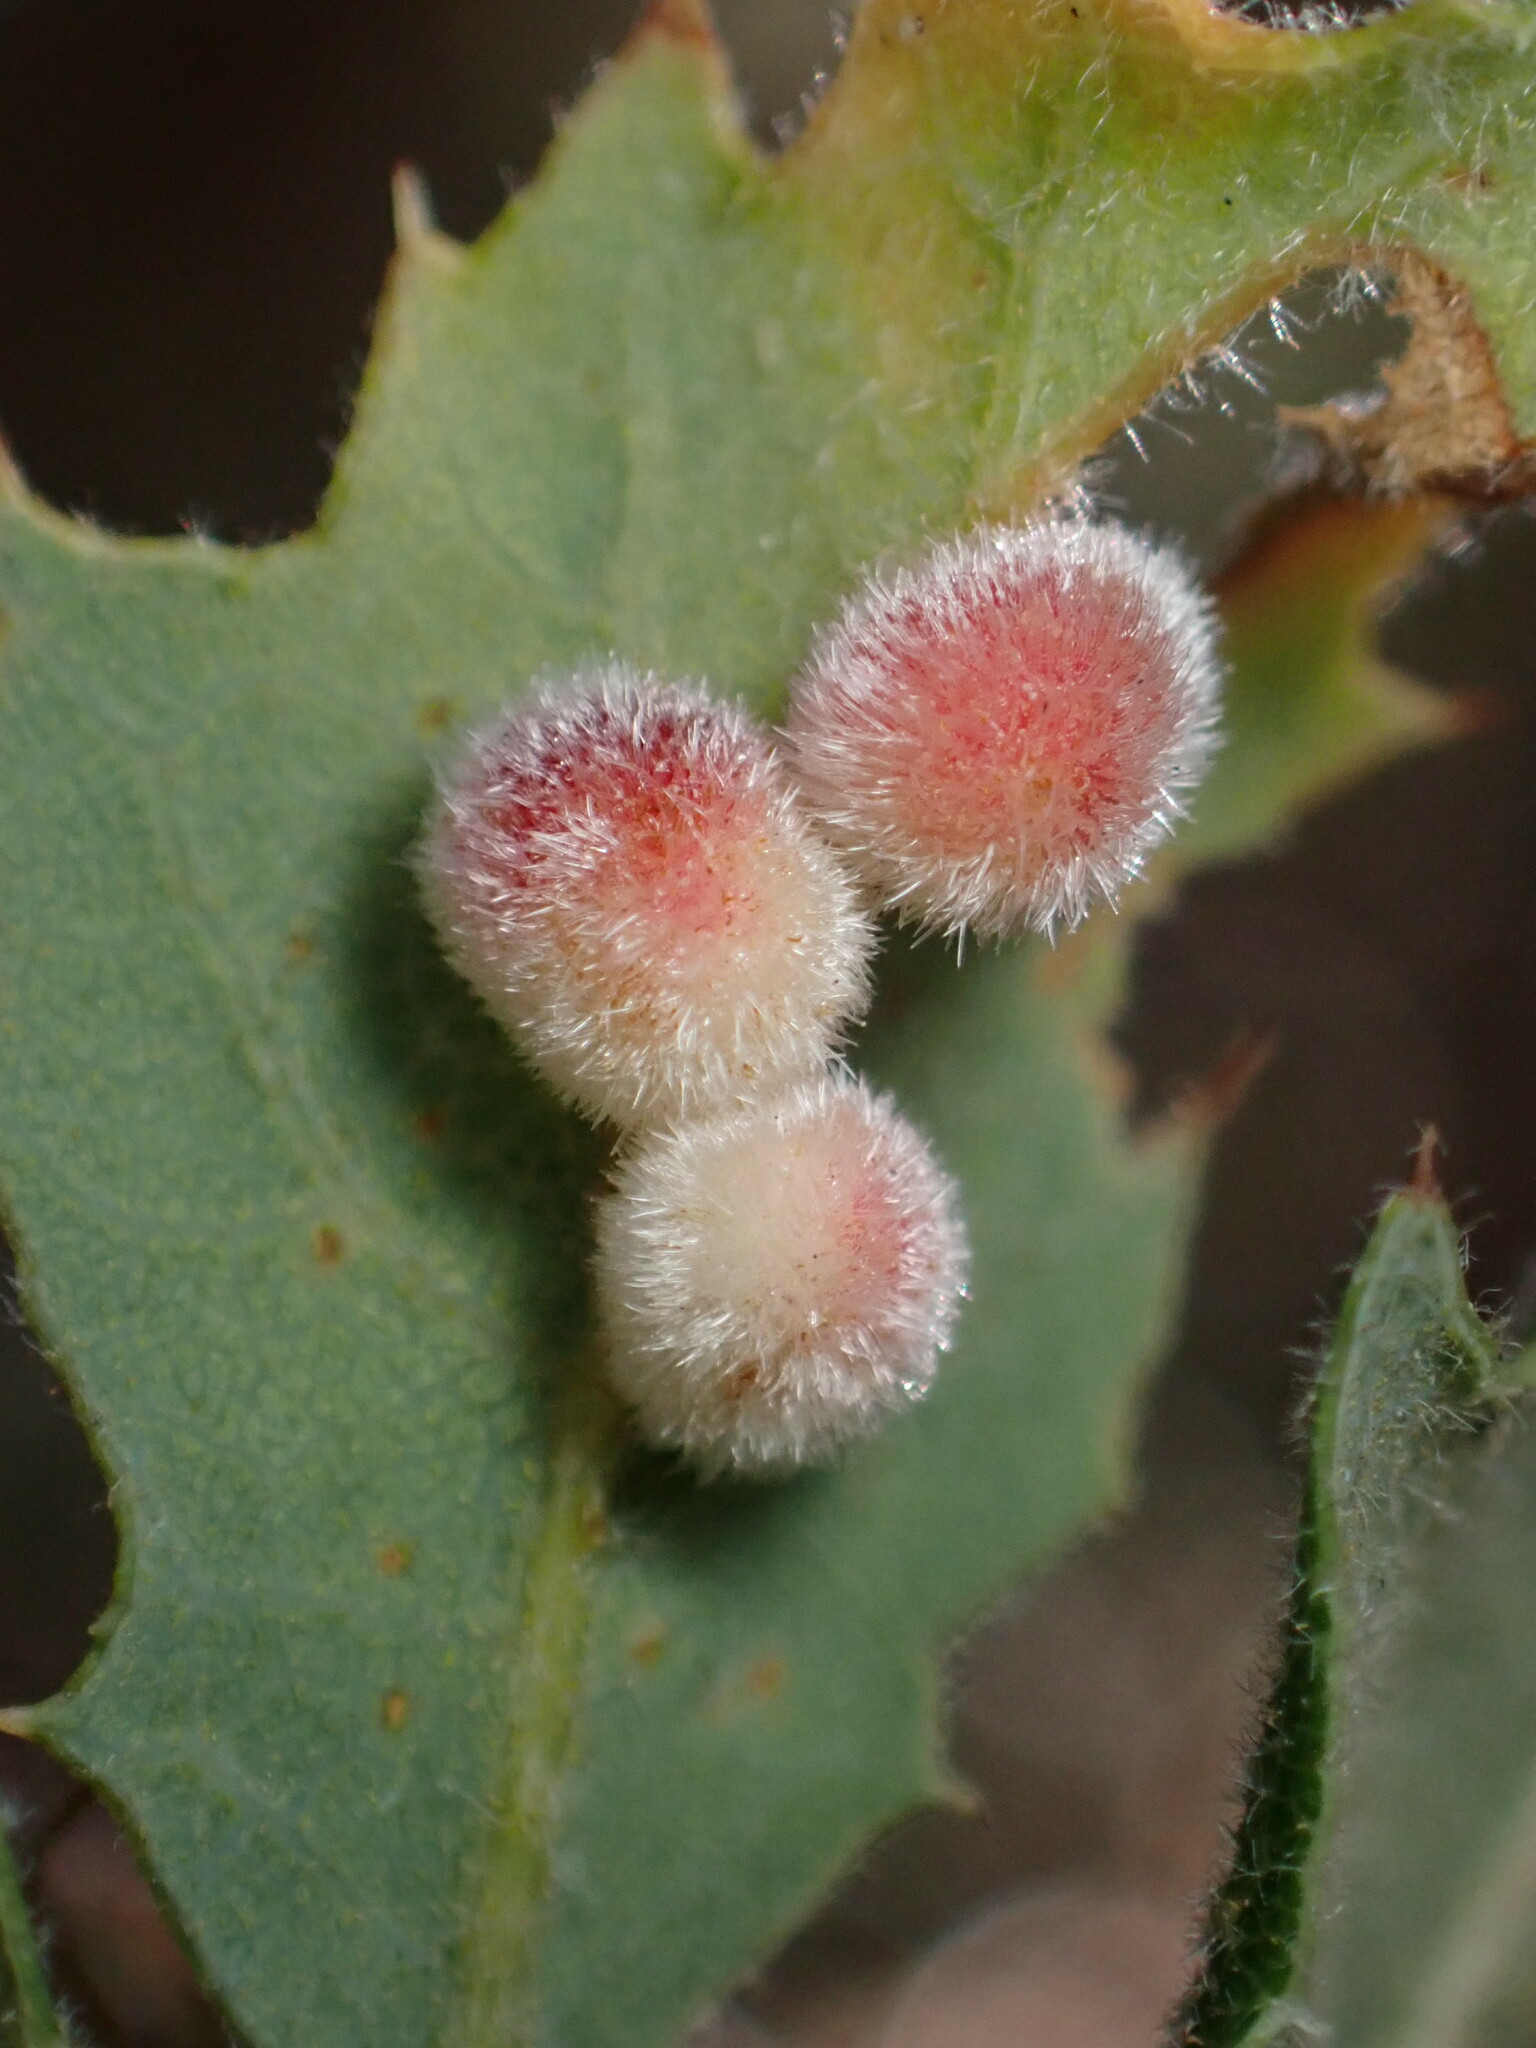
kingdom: Animalia
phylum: Arthropoda
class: Insecta
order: Hymenoptera
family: Cynipidae
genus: Atrusca
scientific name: Atrusca
